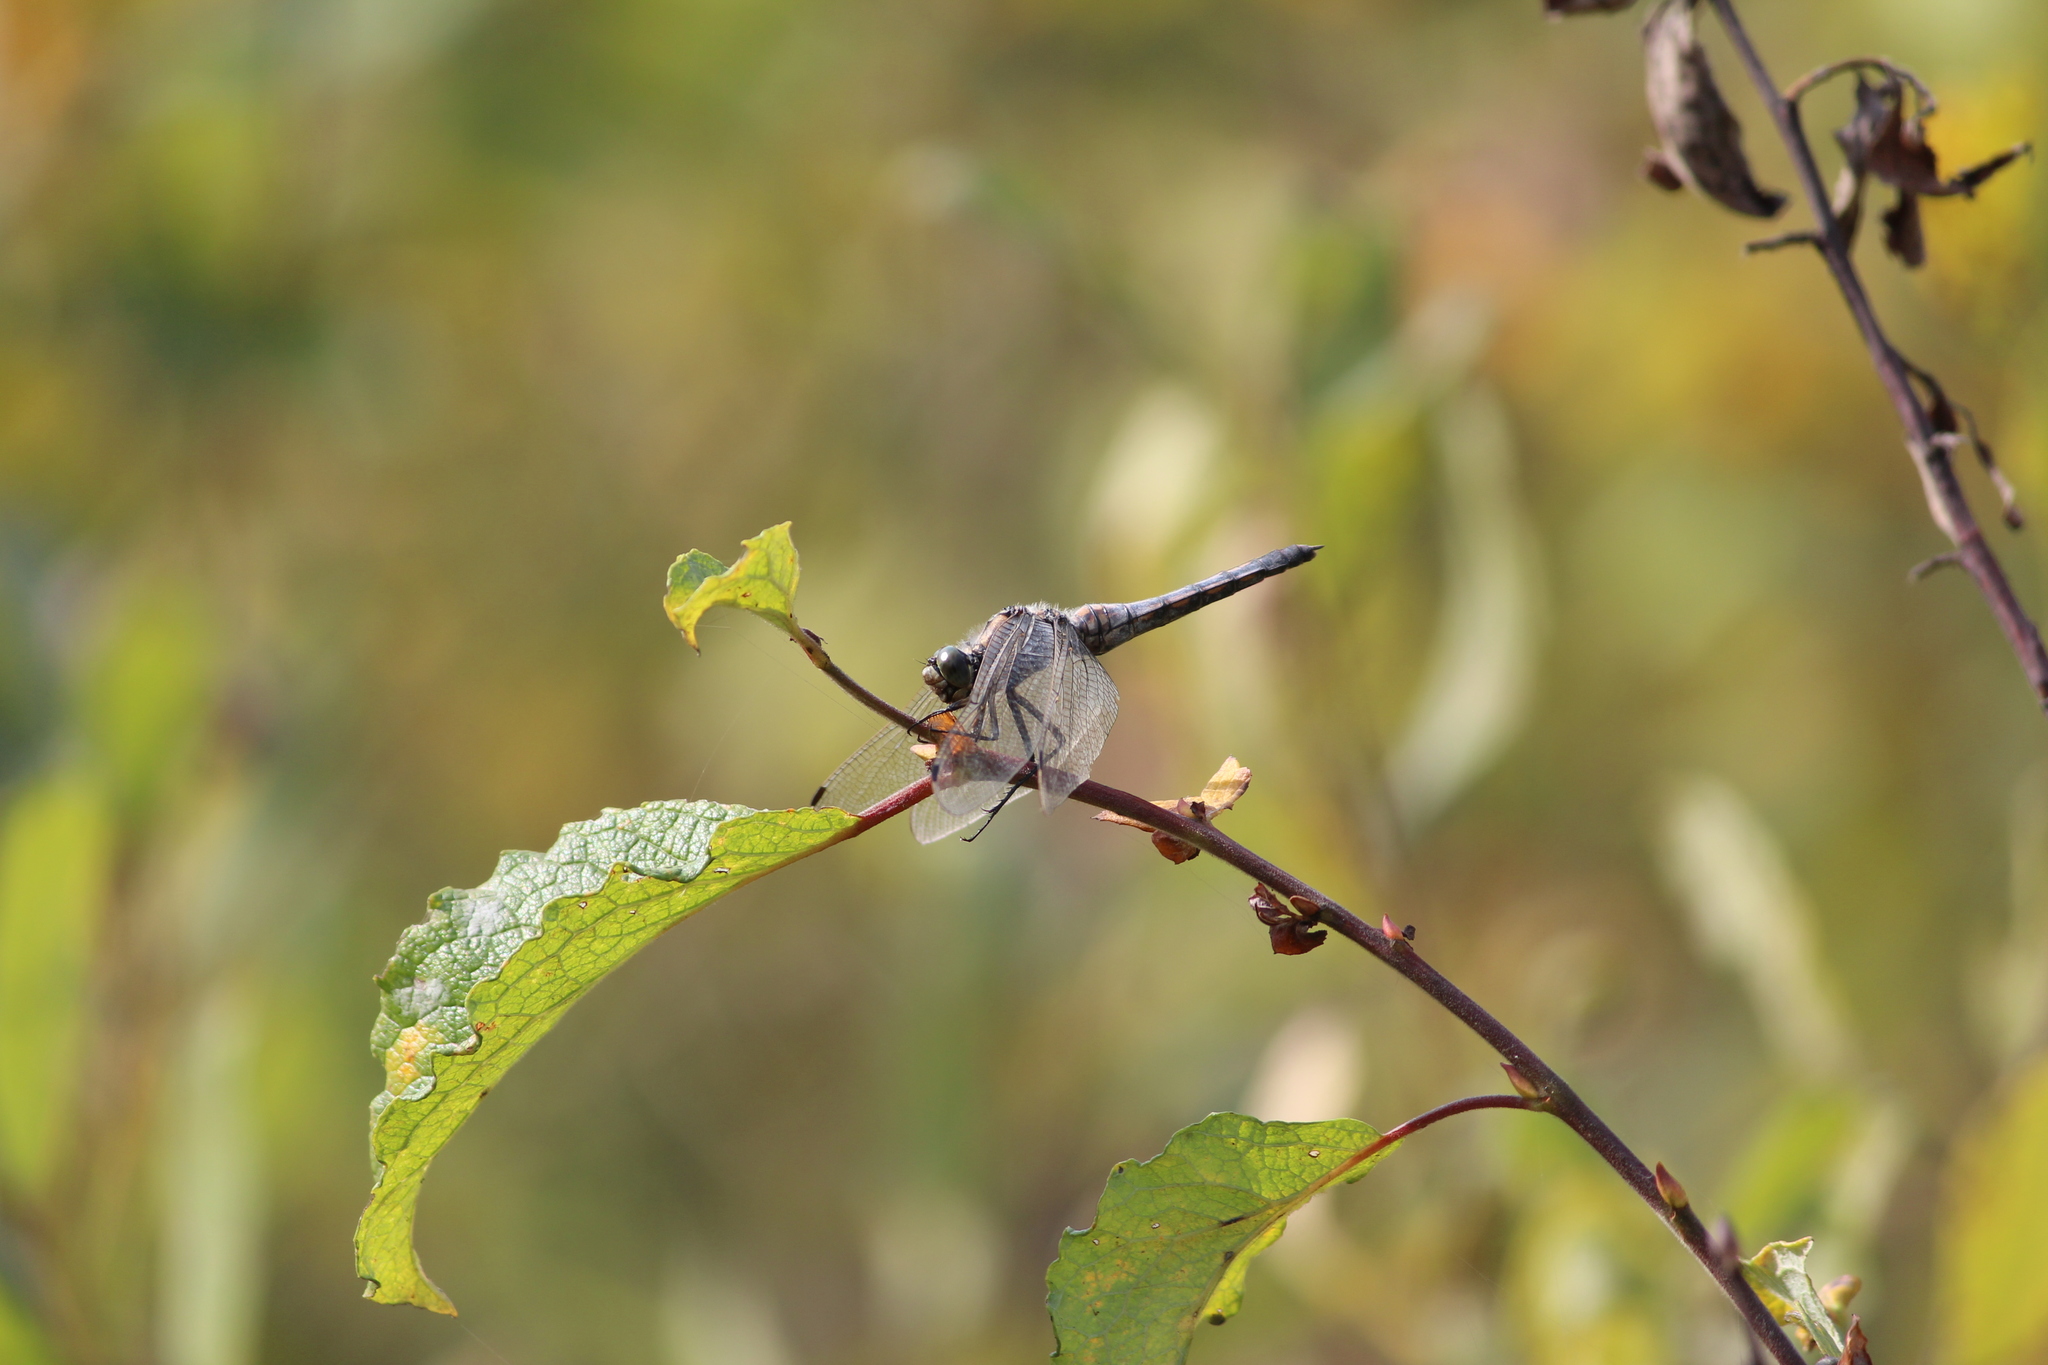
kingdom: Animalia
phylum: Arthropoda
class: Insecta
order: Odonata
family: Libellulidae
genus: Orthetrum
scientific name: Orthetrum cancellatum
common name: Black-tailed skimmer
